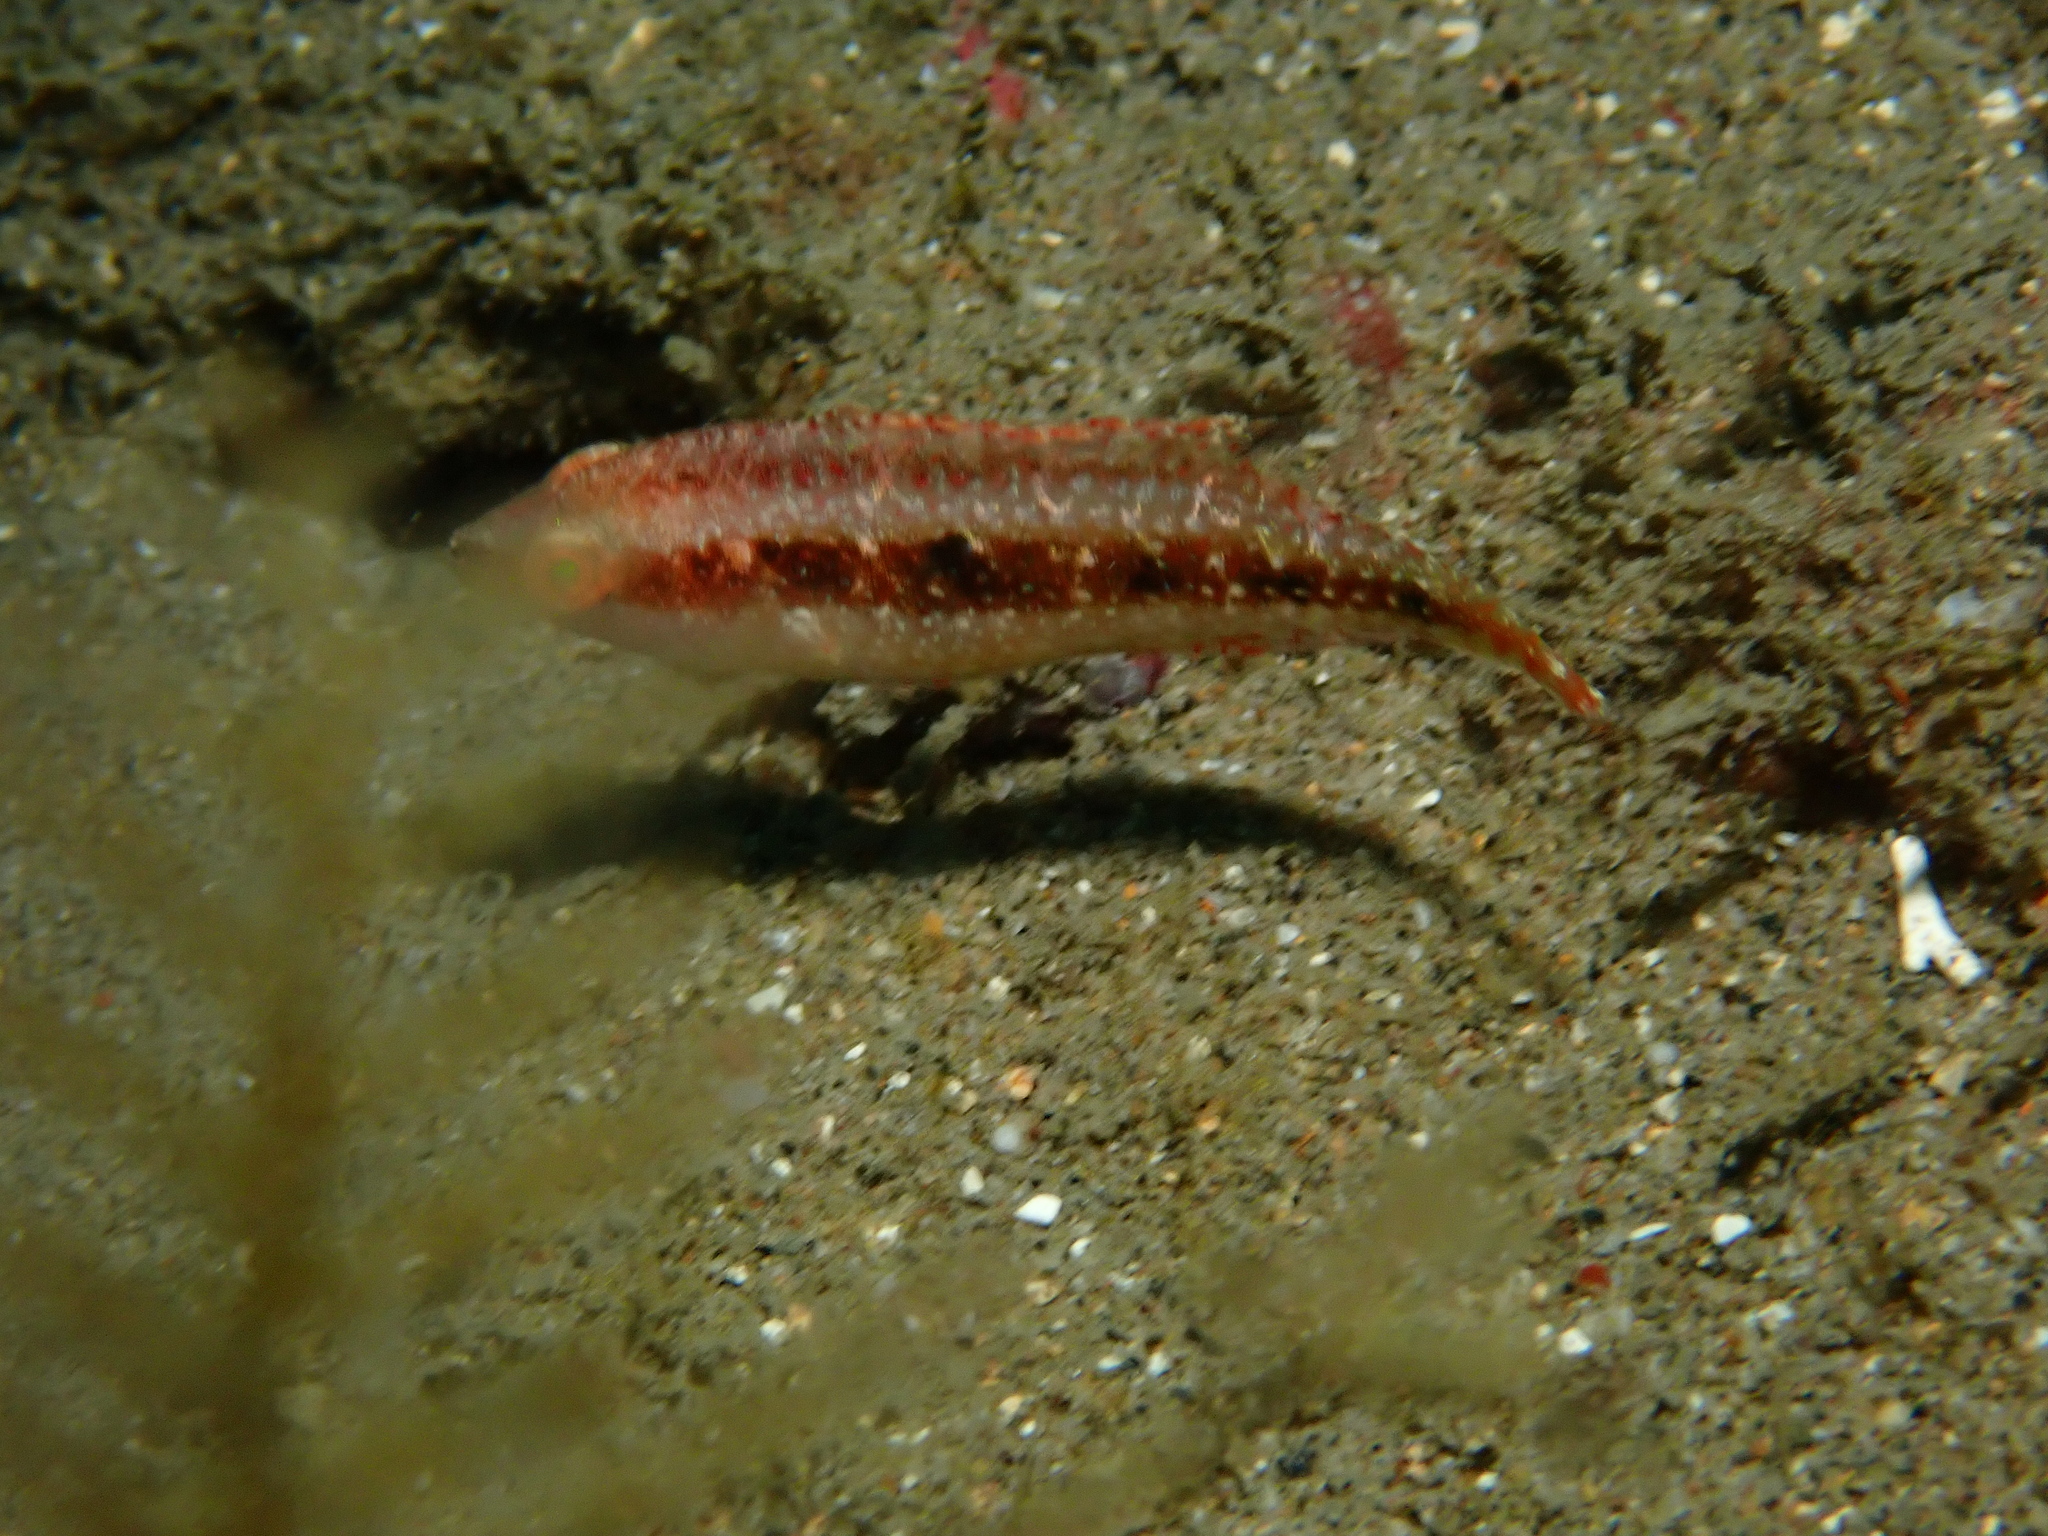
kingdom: Animalia
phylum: Chordata
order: Perciformes
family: Labridae
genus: Oxycheilinus
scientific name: Oxycheilinus bimaculatus
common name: Comettailed wrasse
